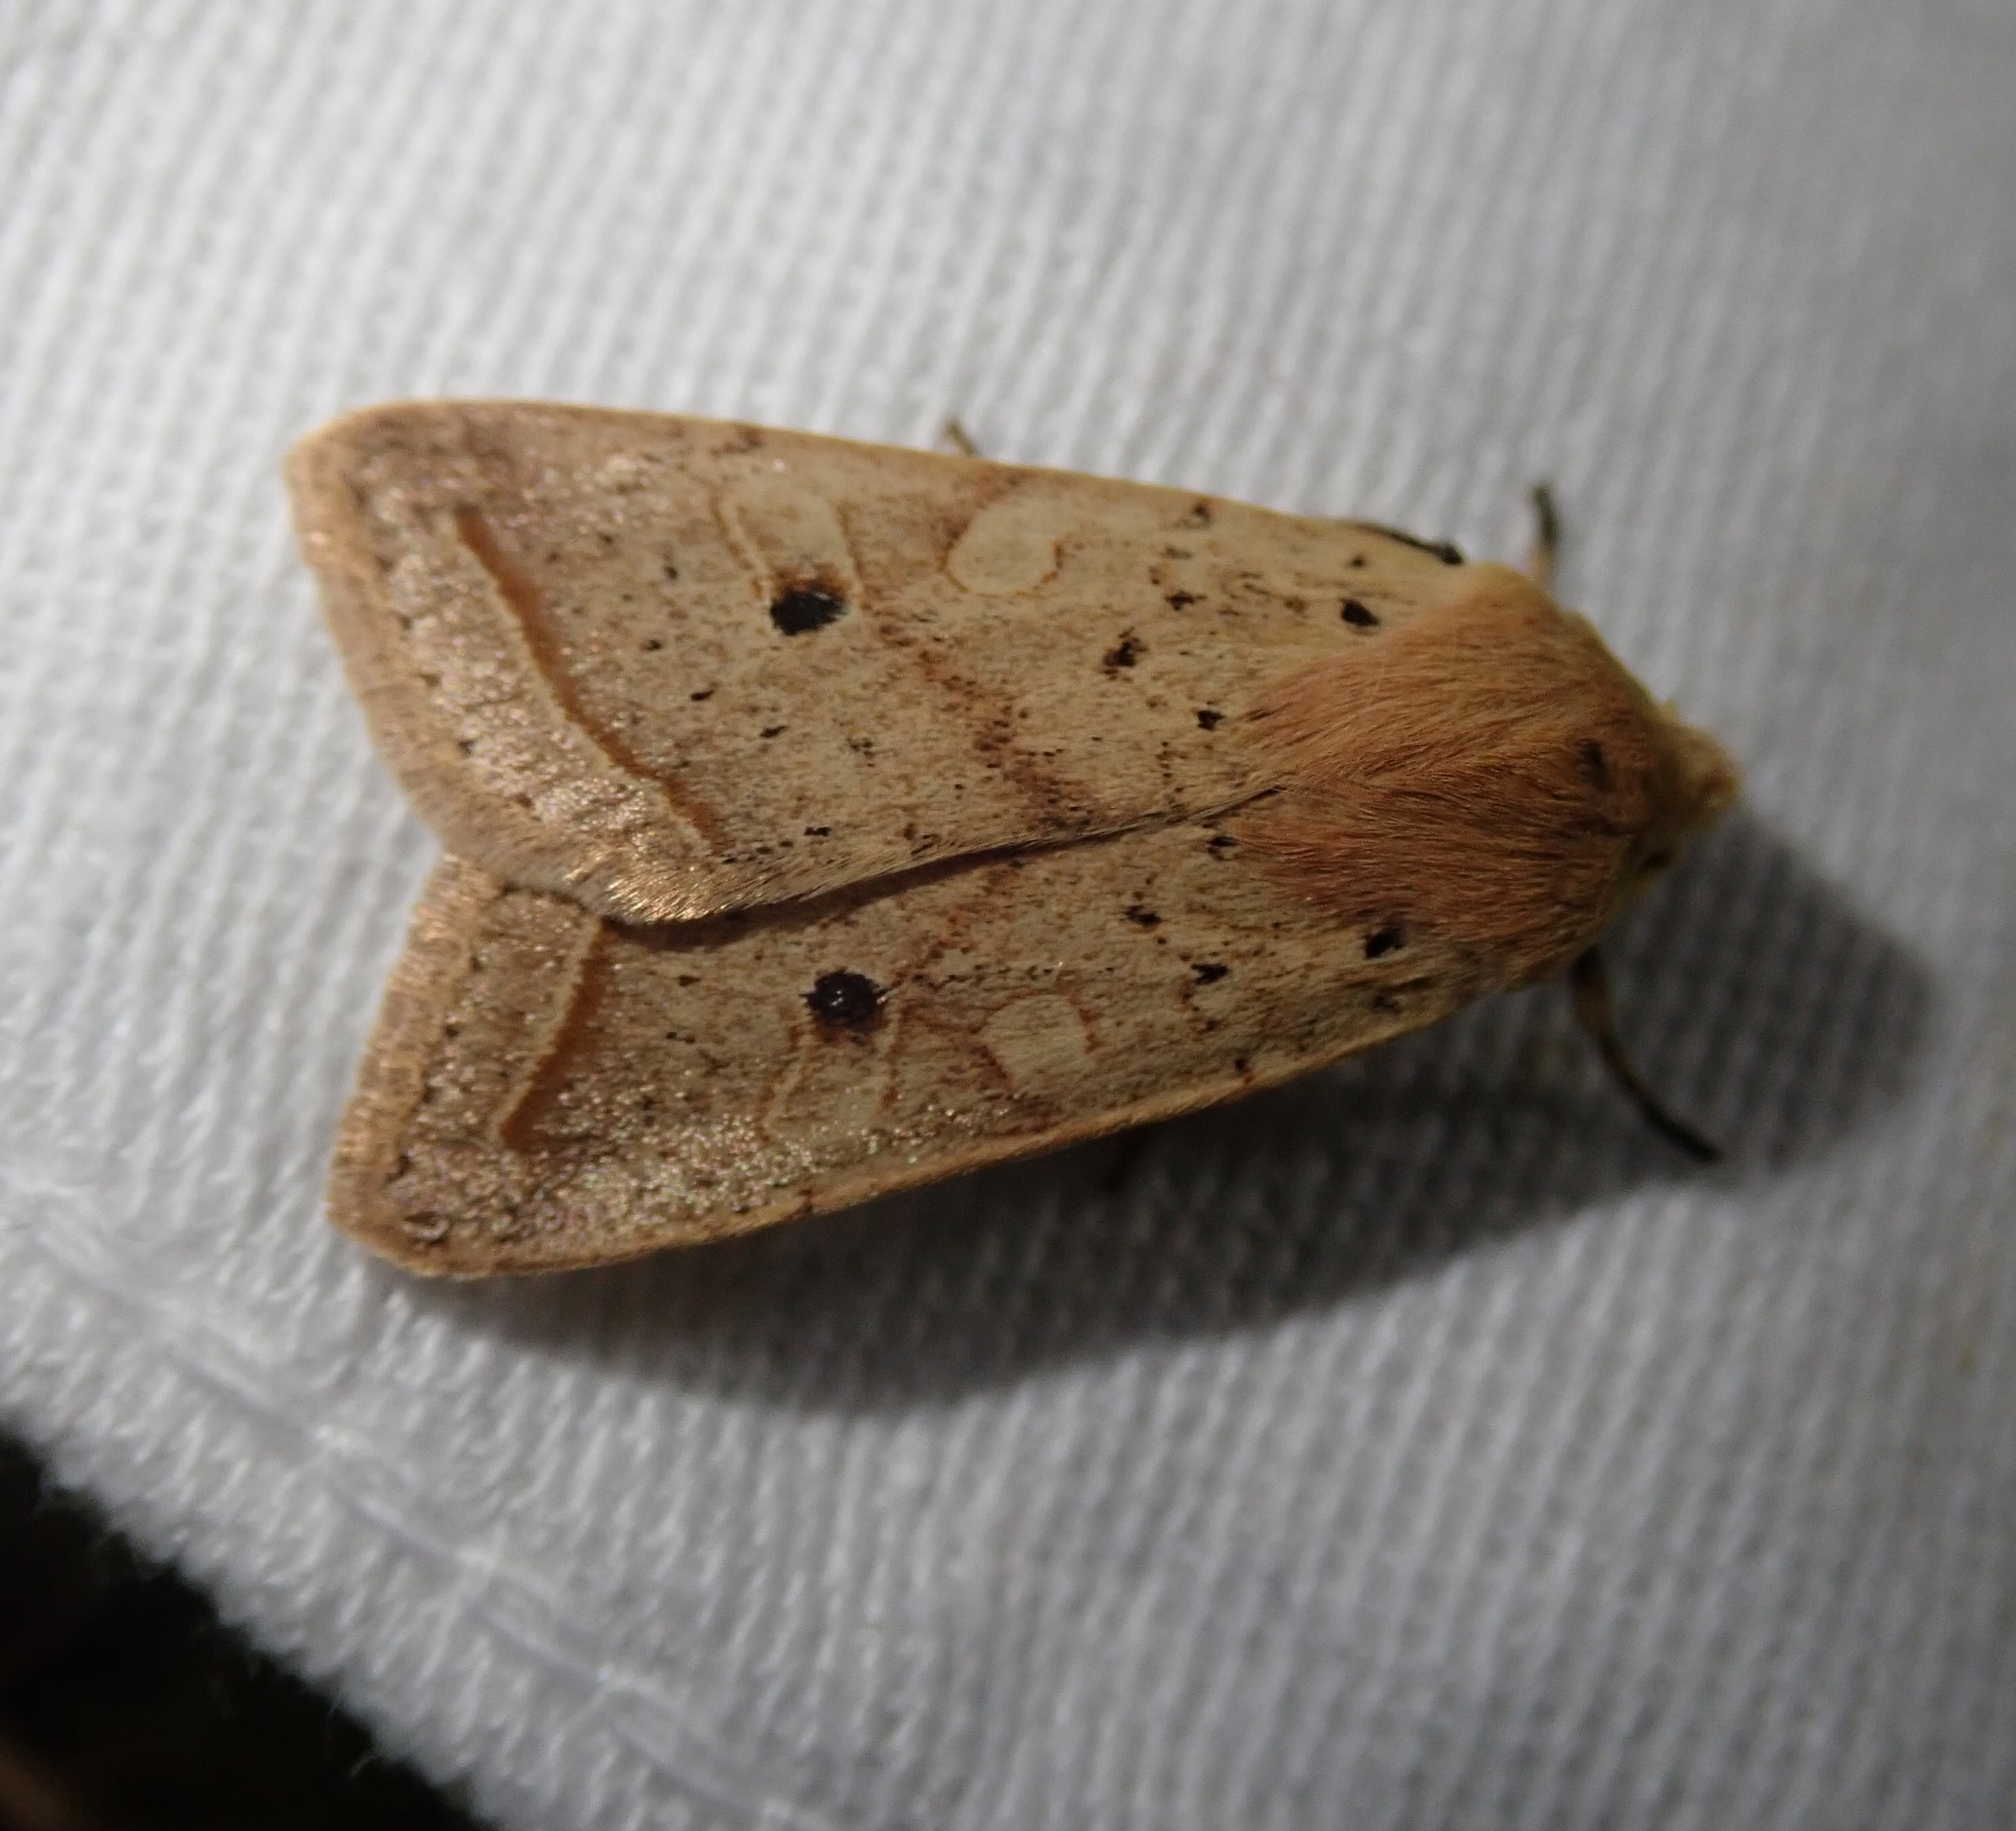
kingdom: Animalia
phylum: Arthropoda
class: Insecta
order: Lepidoptera
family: Noctuidae
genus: Agrochola
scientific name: Agrochola macilenta
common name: Yellow-line quaker
